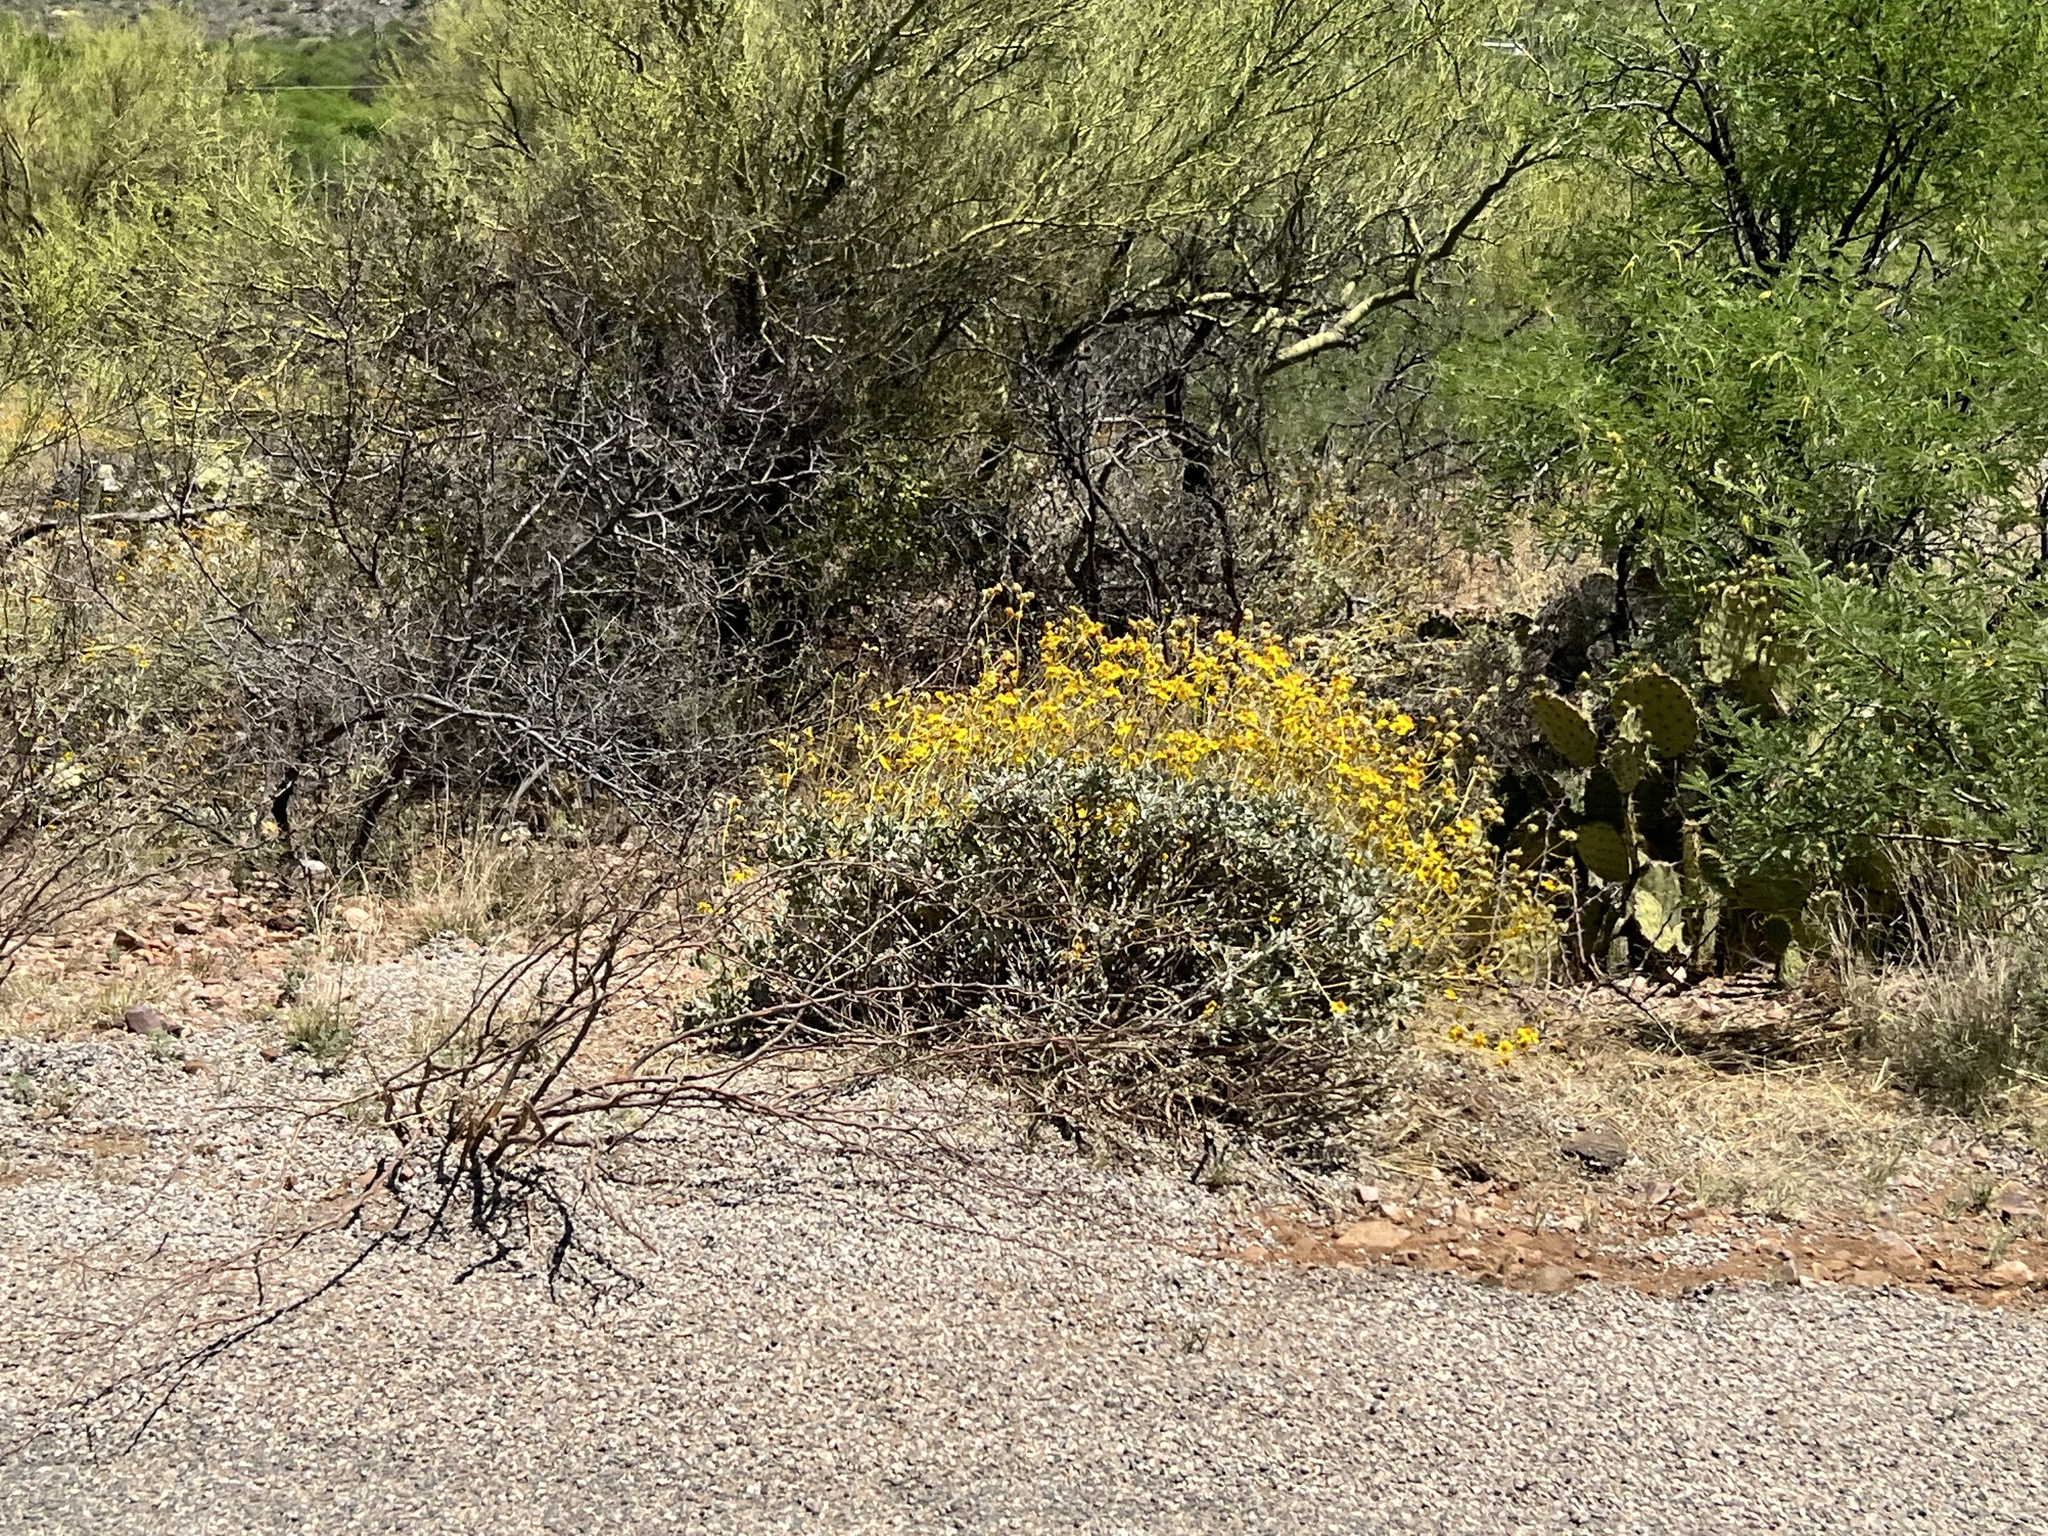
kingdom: Plantae
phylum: Tracheophyta
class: Magnoliopsida
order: Asterales
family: Asteraceae
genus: Encelia
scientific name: Encelia farinosa
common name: Brittlebush
